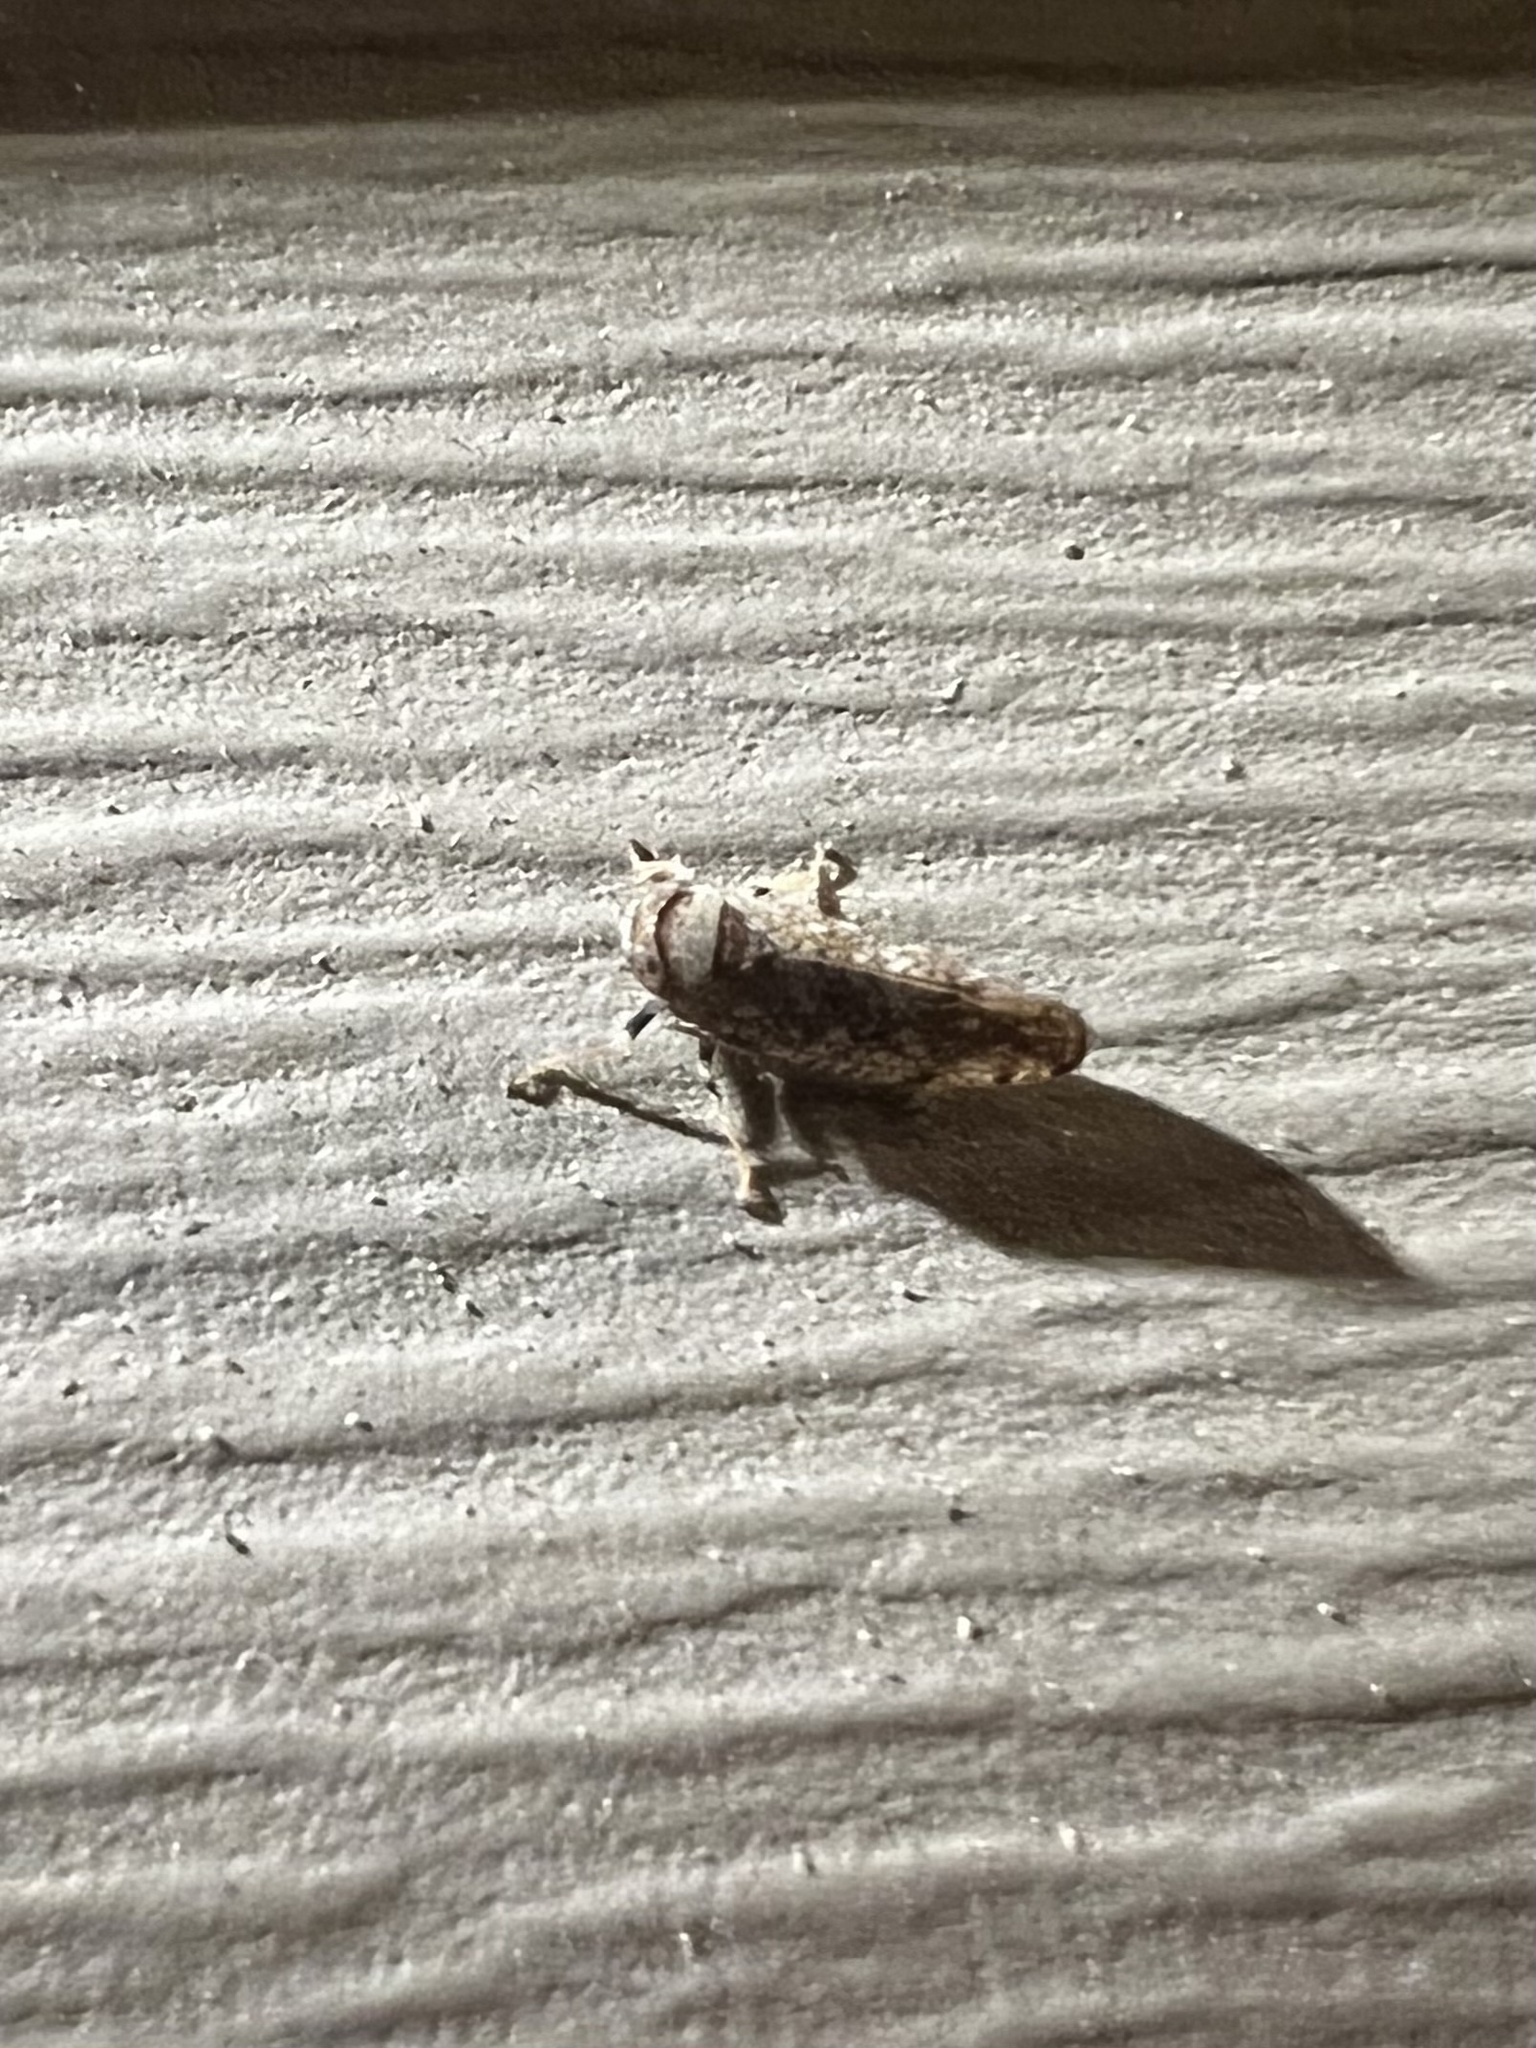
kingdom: Animalia
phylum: Arthropoda
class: Insecta
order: Hemiptera
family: Cicadellidae
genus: Orientus
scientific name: Orientus ishidae
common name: Japanese leafhopper
